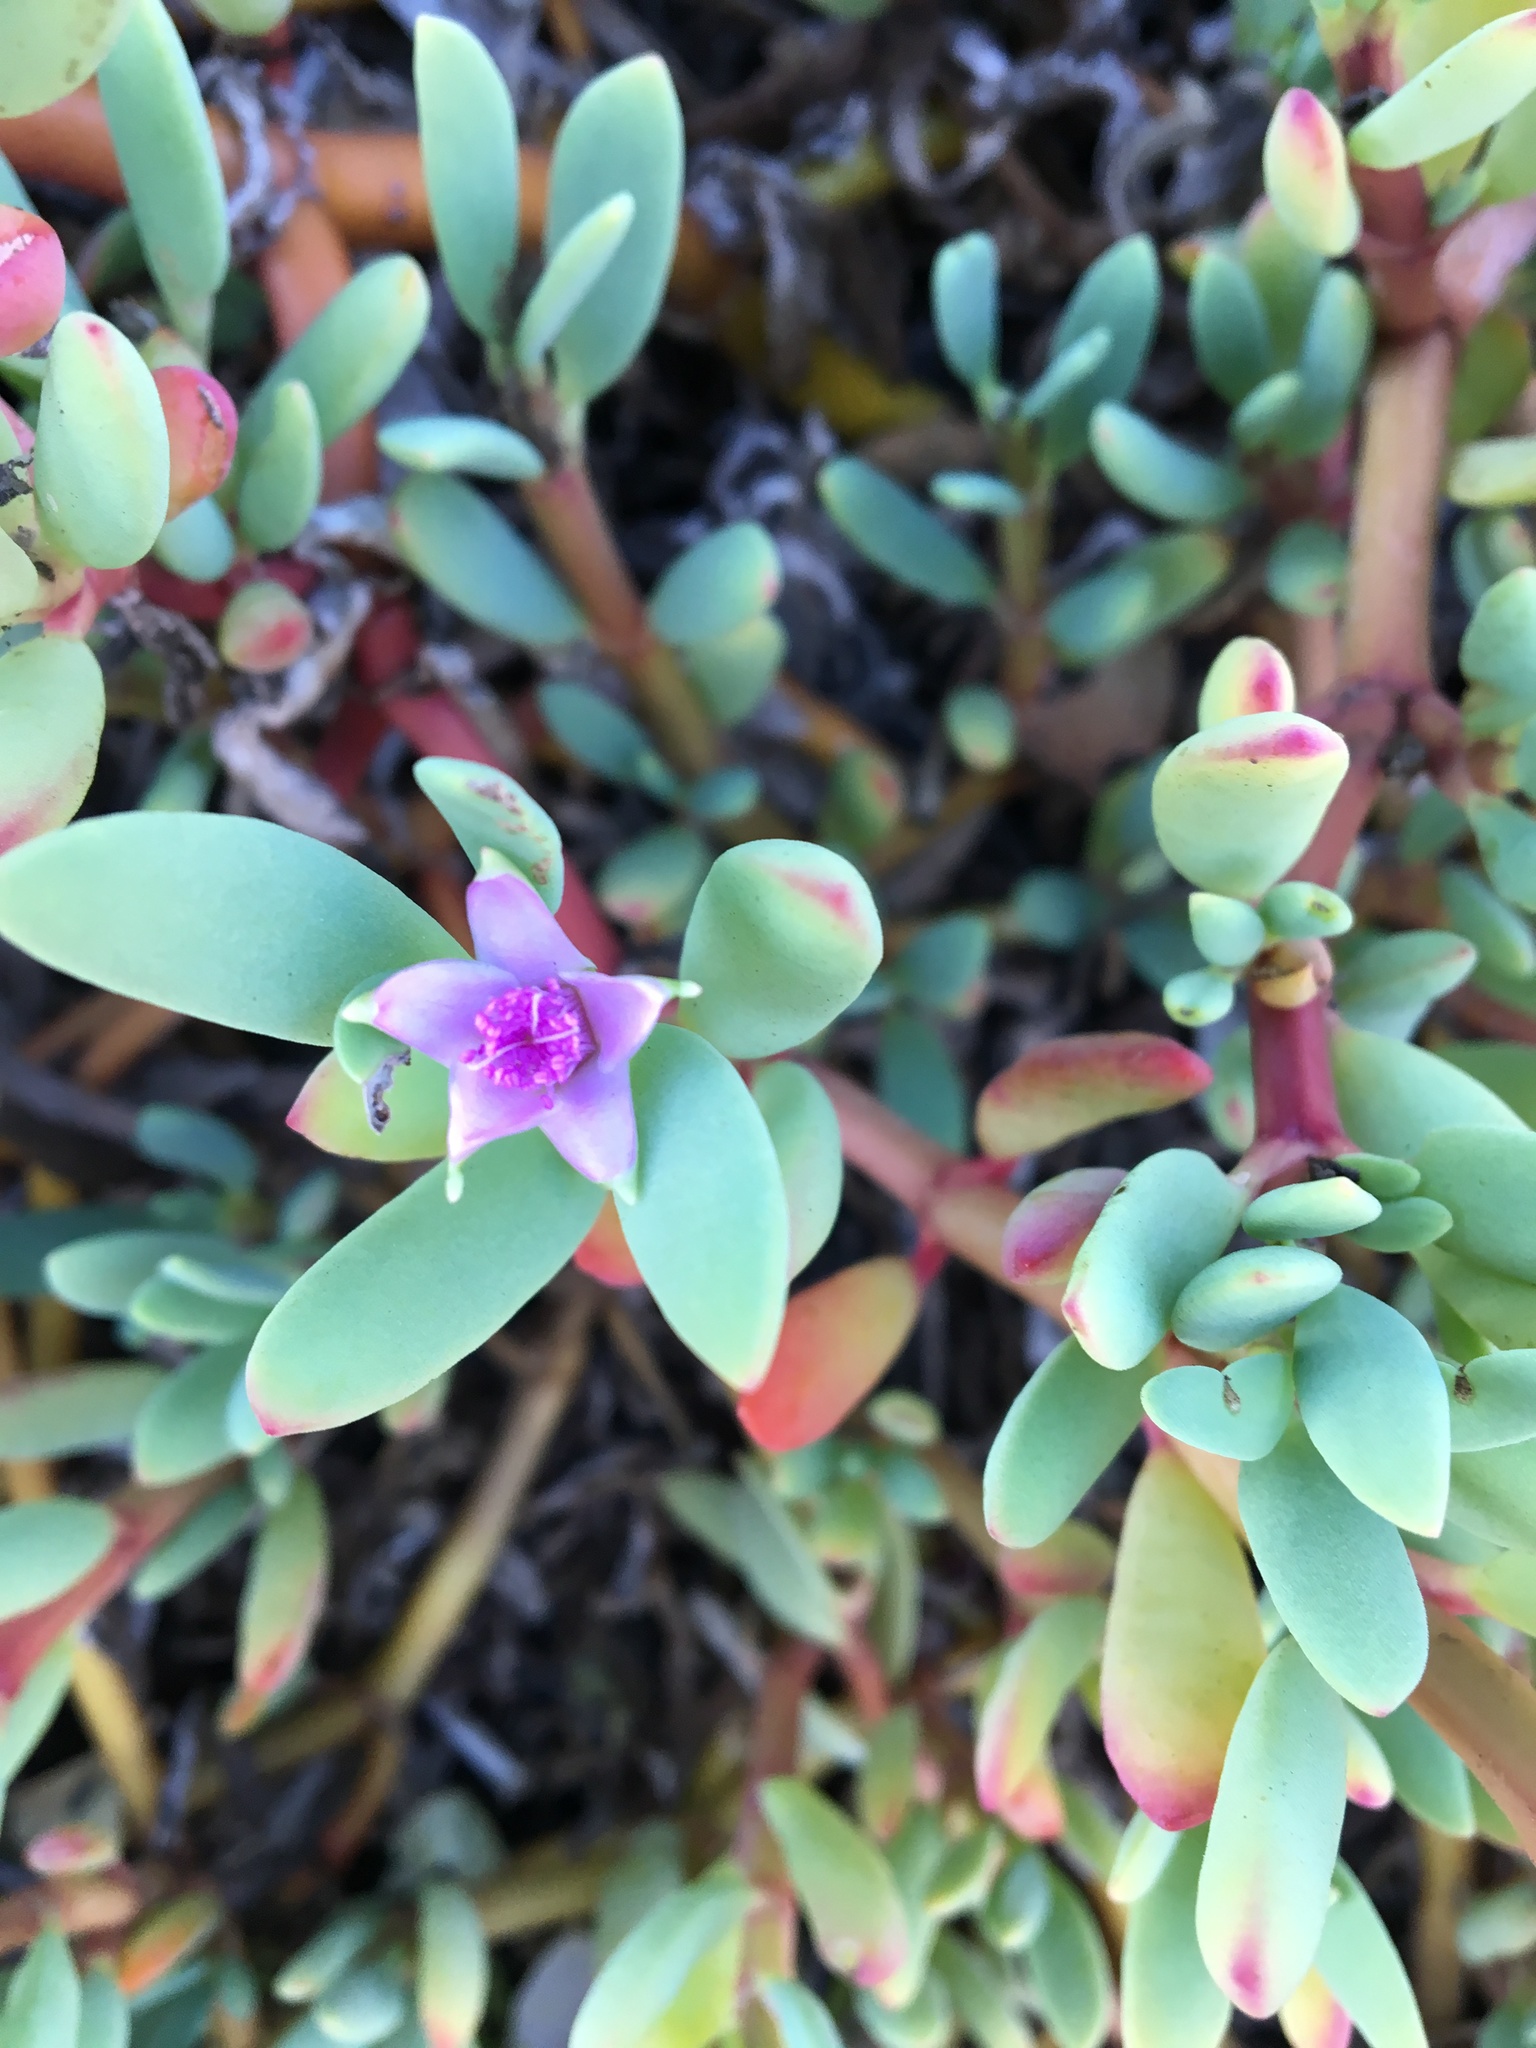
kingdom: Plantae
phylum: Tracheophyta
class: Magnoliopsida
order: Caryophyllales
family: Aizoaceae
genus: Sesuvium
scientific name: Sesuvium portulacastrum
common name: Sea-purslane
